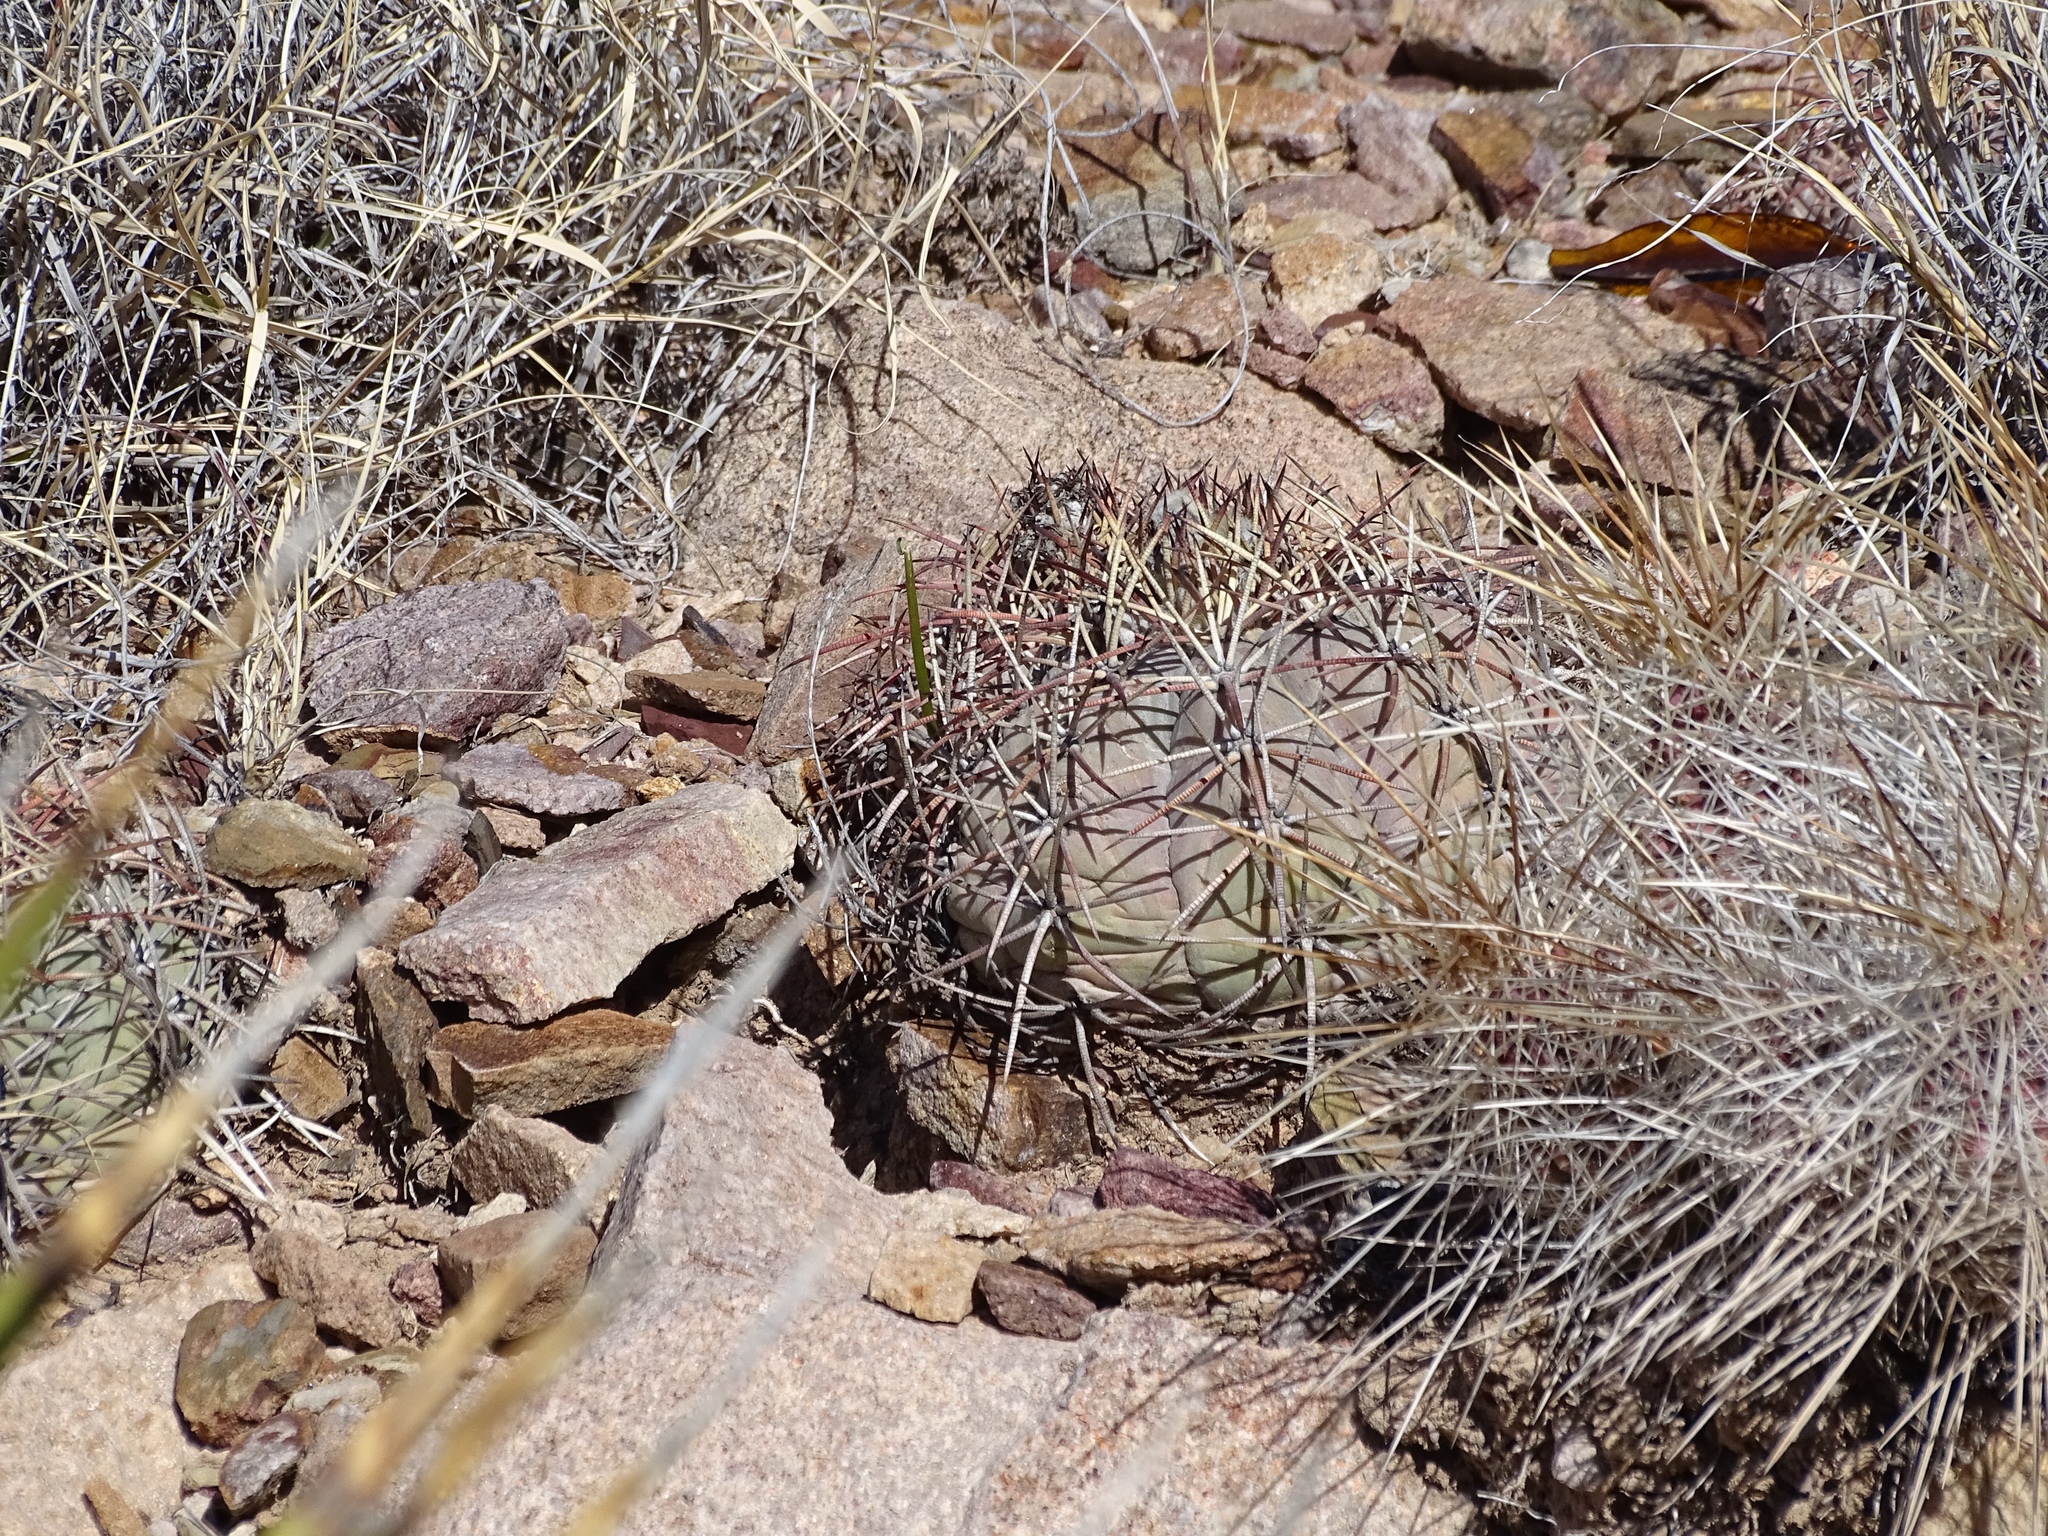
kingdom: Plantae
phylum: Tracheophyta
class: Magnoliopsida
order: Caryophyllales
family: Cactaceae
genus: Echinocactus
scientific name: Echinocactus horizonthalonius
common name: Devilshead
